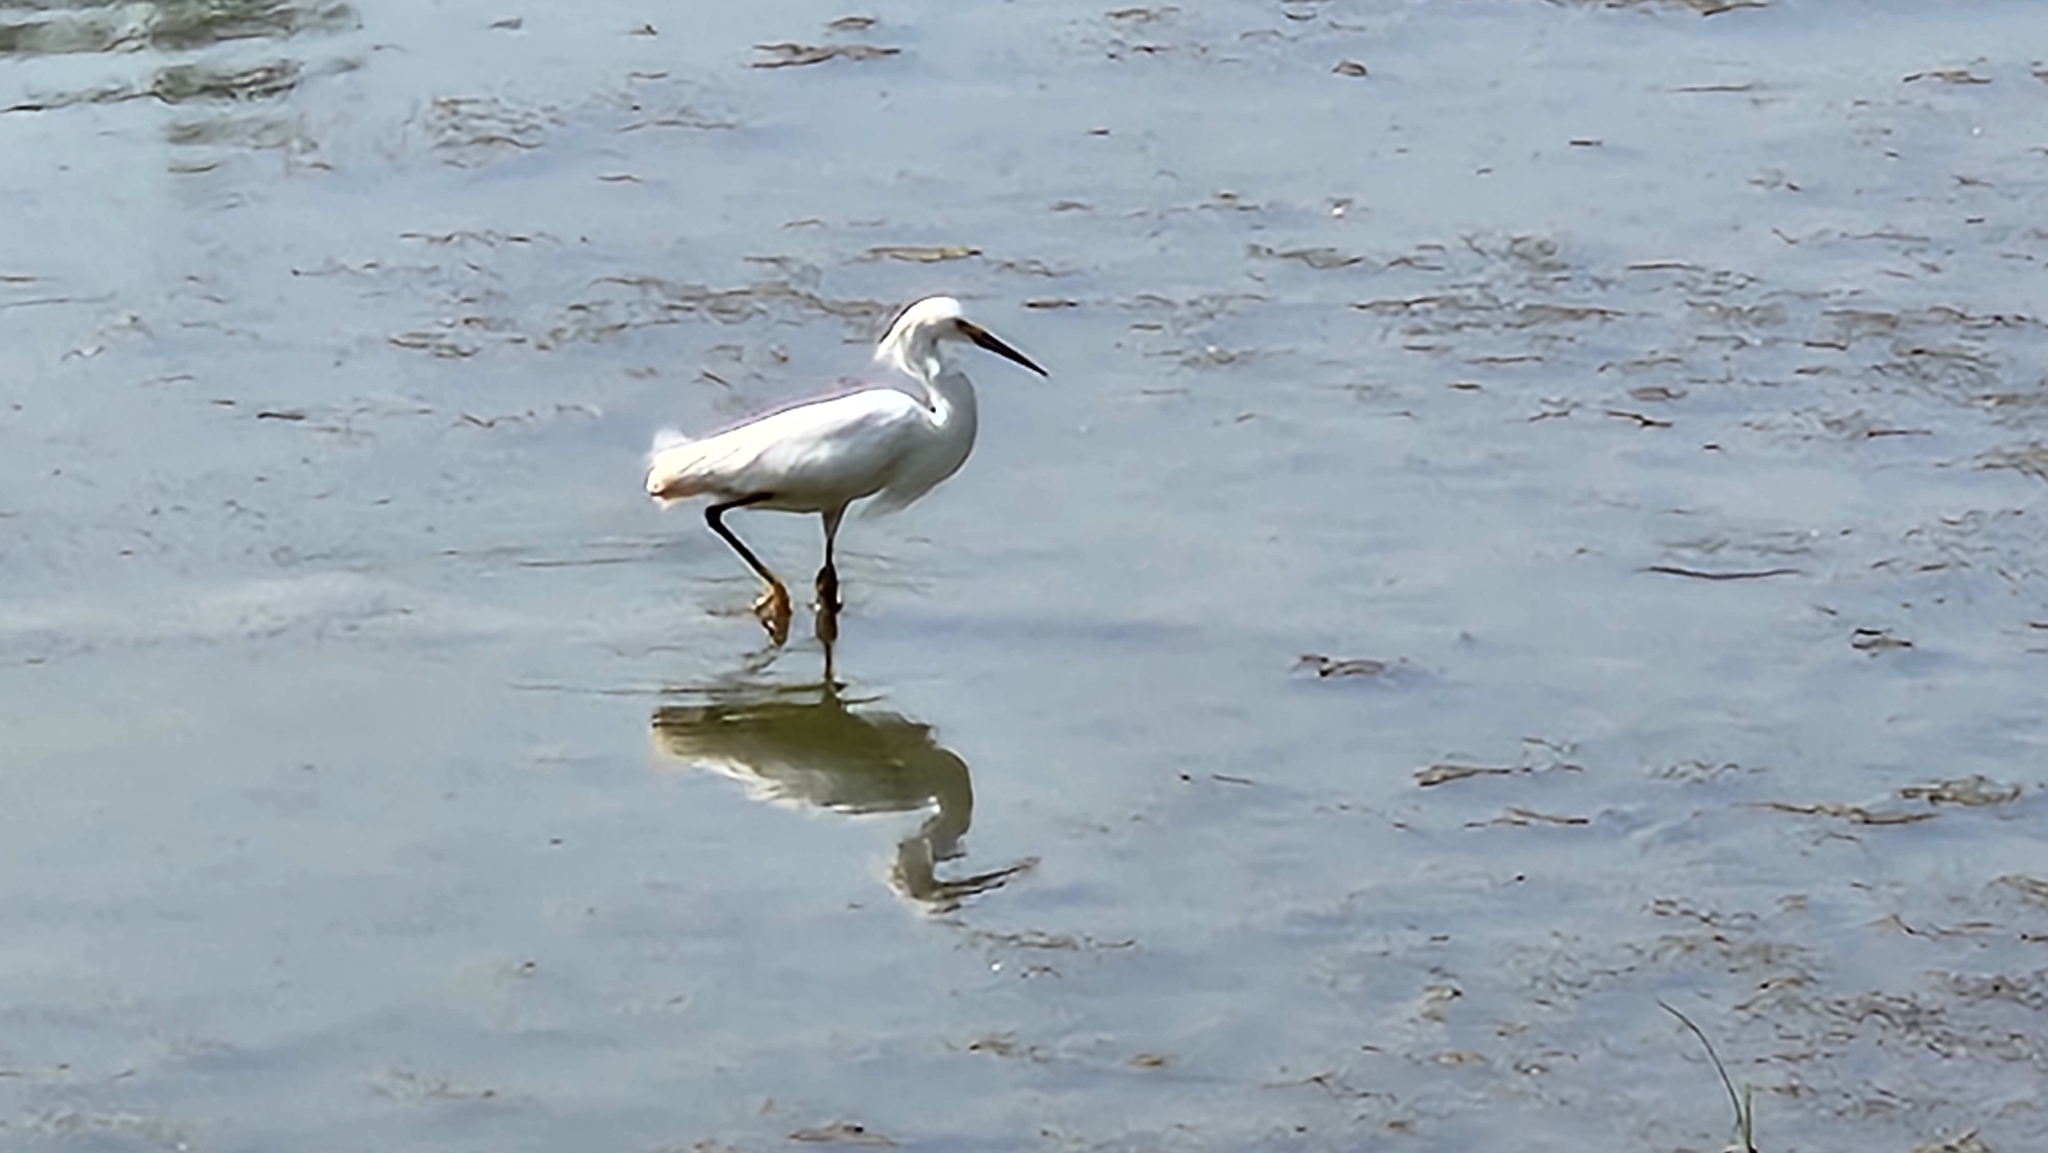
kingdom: Animalia
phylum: Chordata
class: Aves
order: Pelecaniformes
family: Ardeidae
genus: Egretta
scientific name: Egretta thula
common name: Snowy egret
